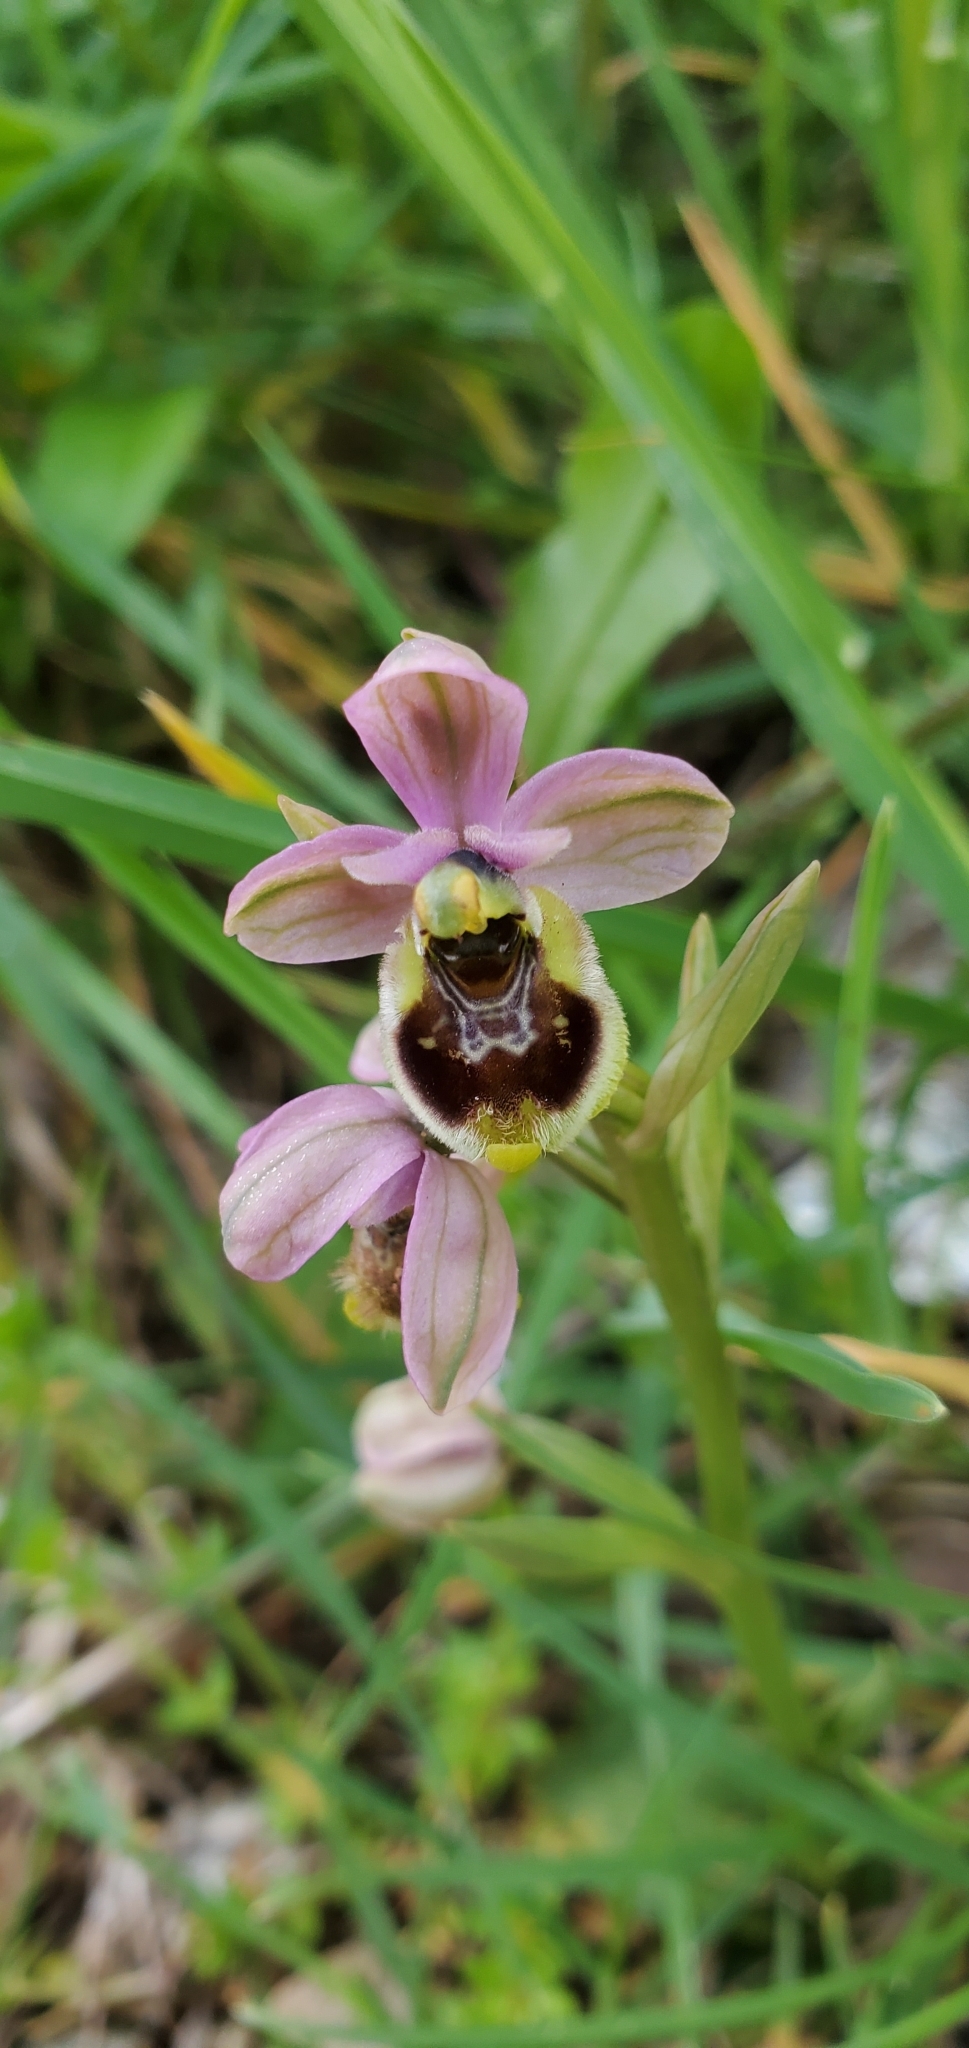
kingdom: Plantae
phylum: Tracheophyta
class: Liliopsida
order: Asparagales
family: Orchidaceae
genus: Ophrys
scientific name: Ophrys tenthredinifera
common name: Sawfly orchid
